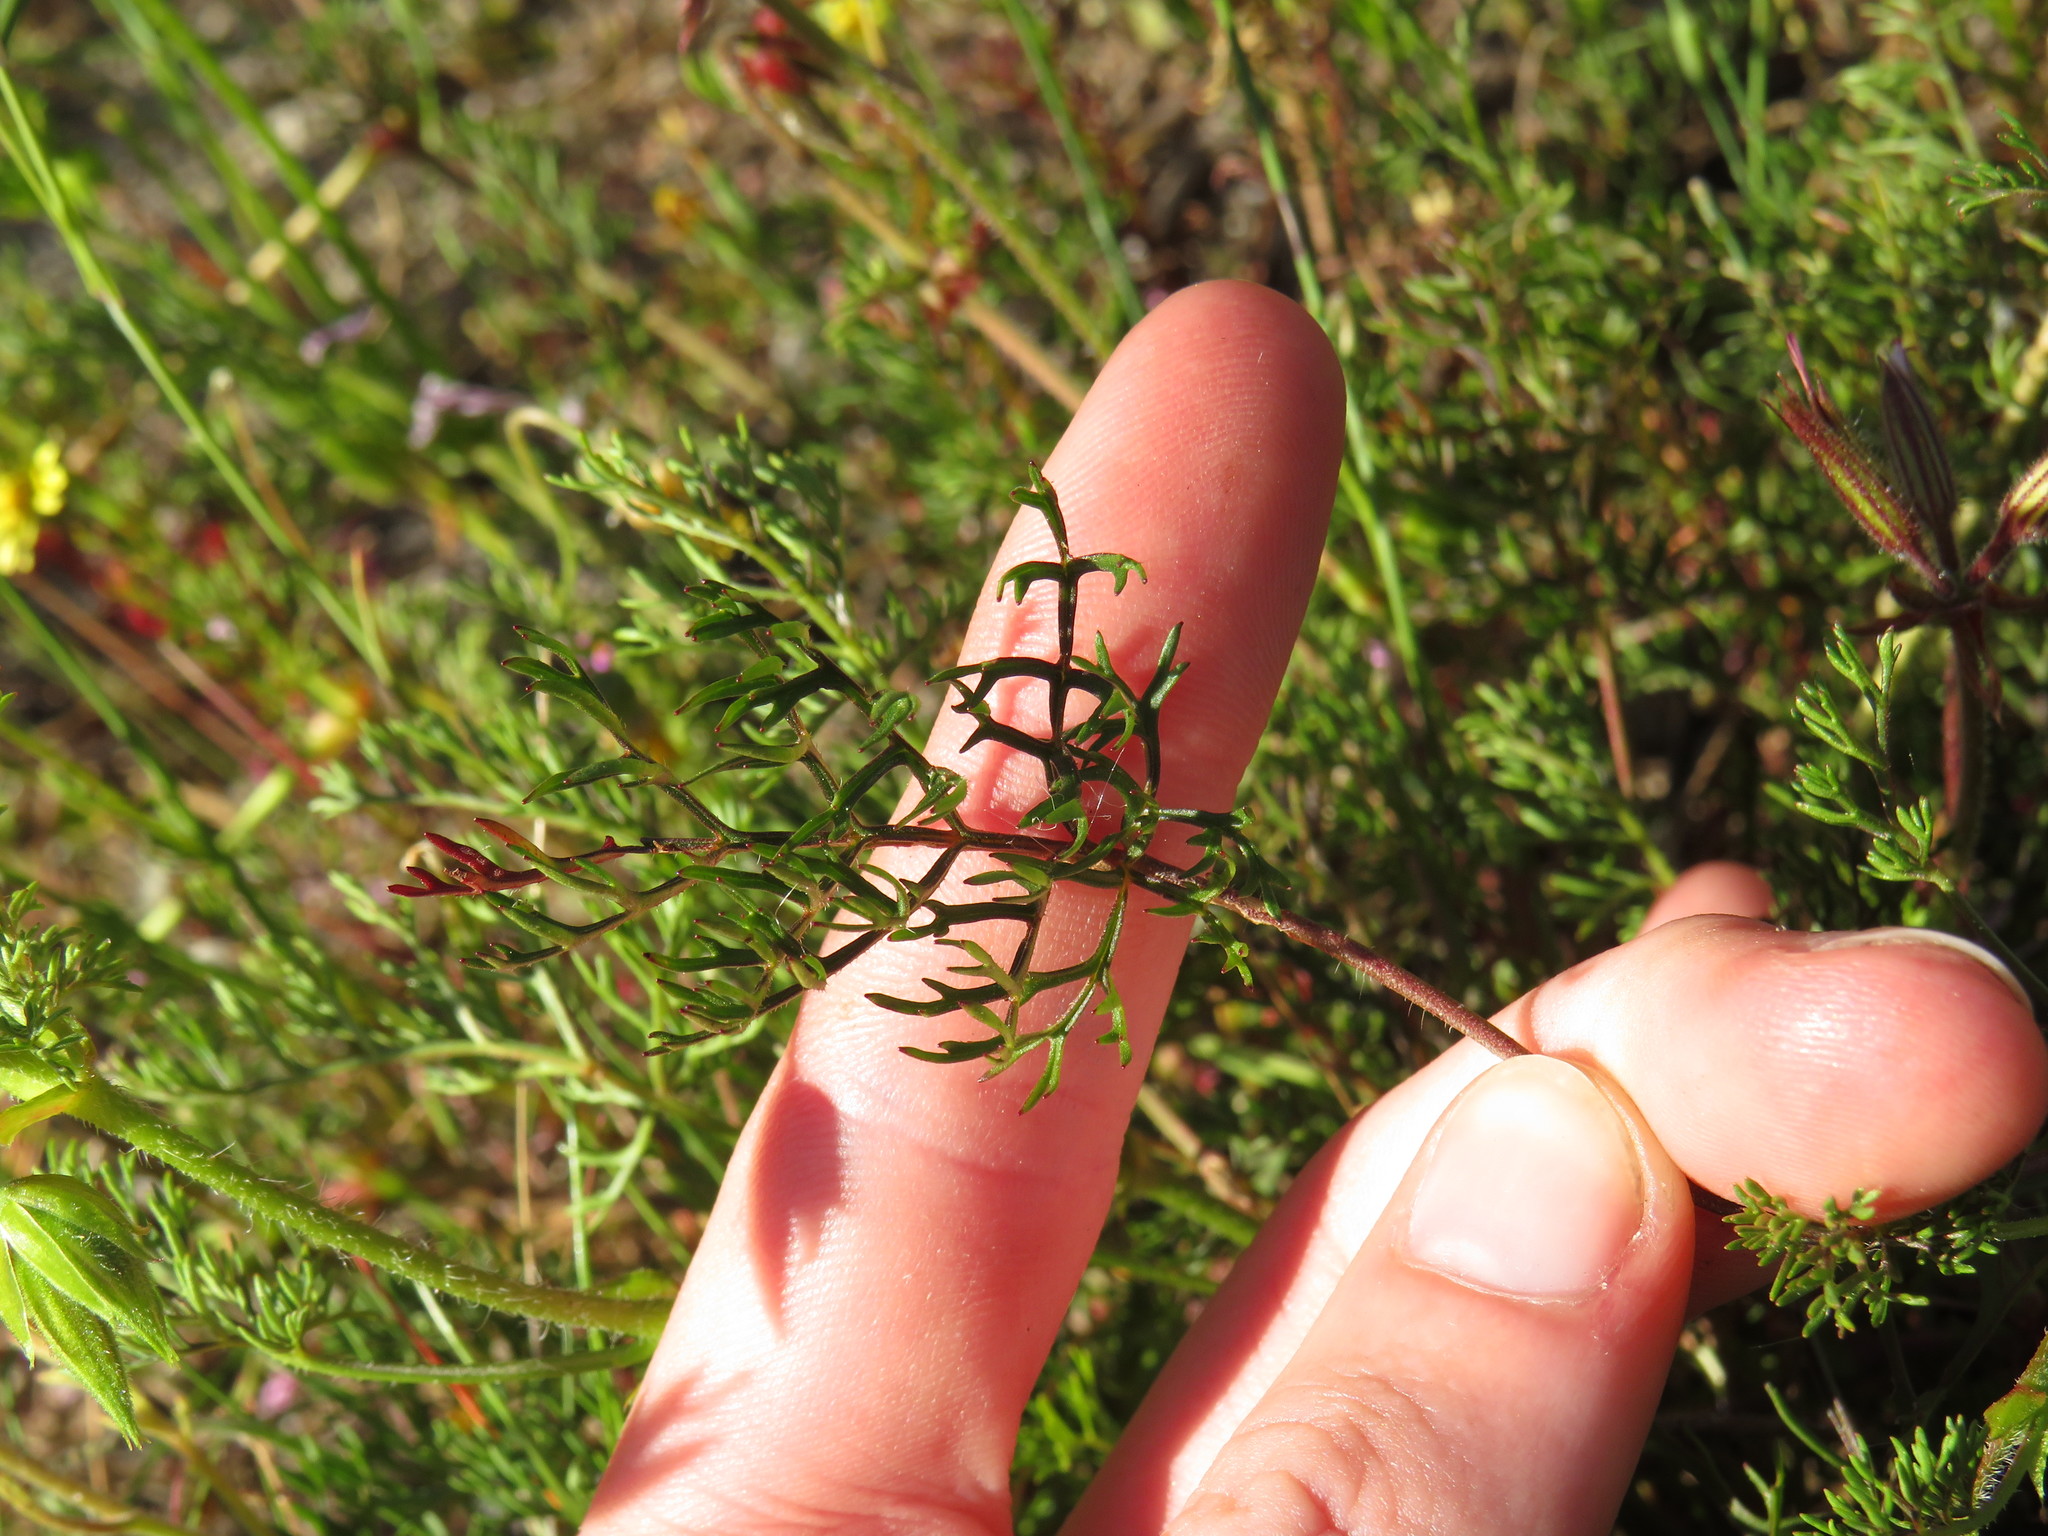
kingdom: Plantae
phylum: Tracheophyta
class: Magnoliopsida
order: Geraniales
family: Geraniaceae
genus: Pelargonium
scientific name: Pelargonium myrrhifolium
